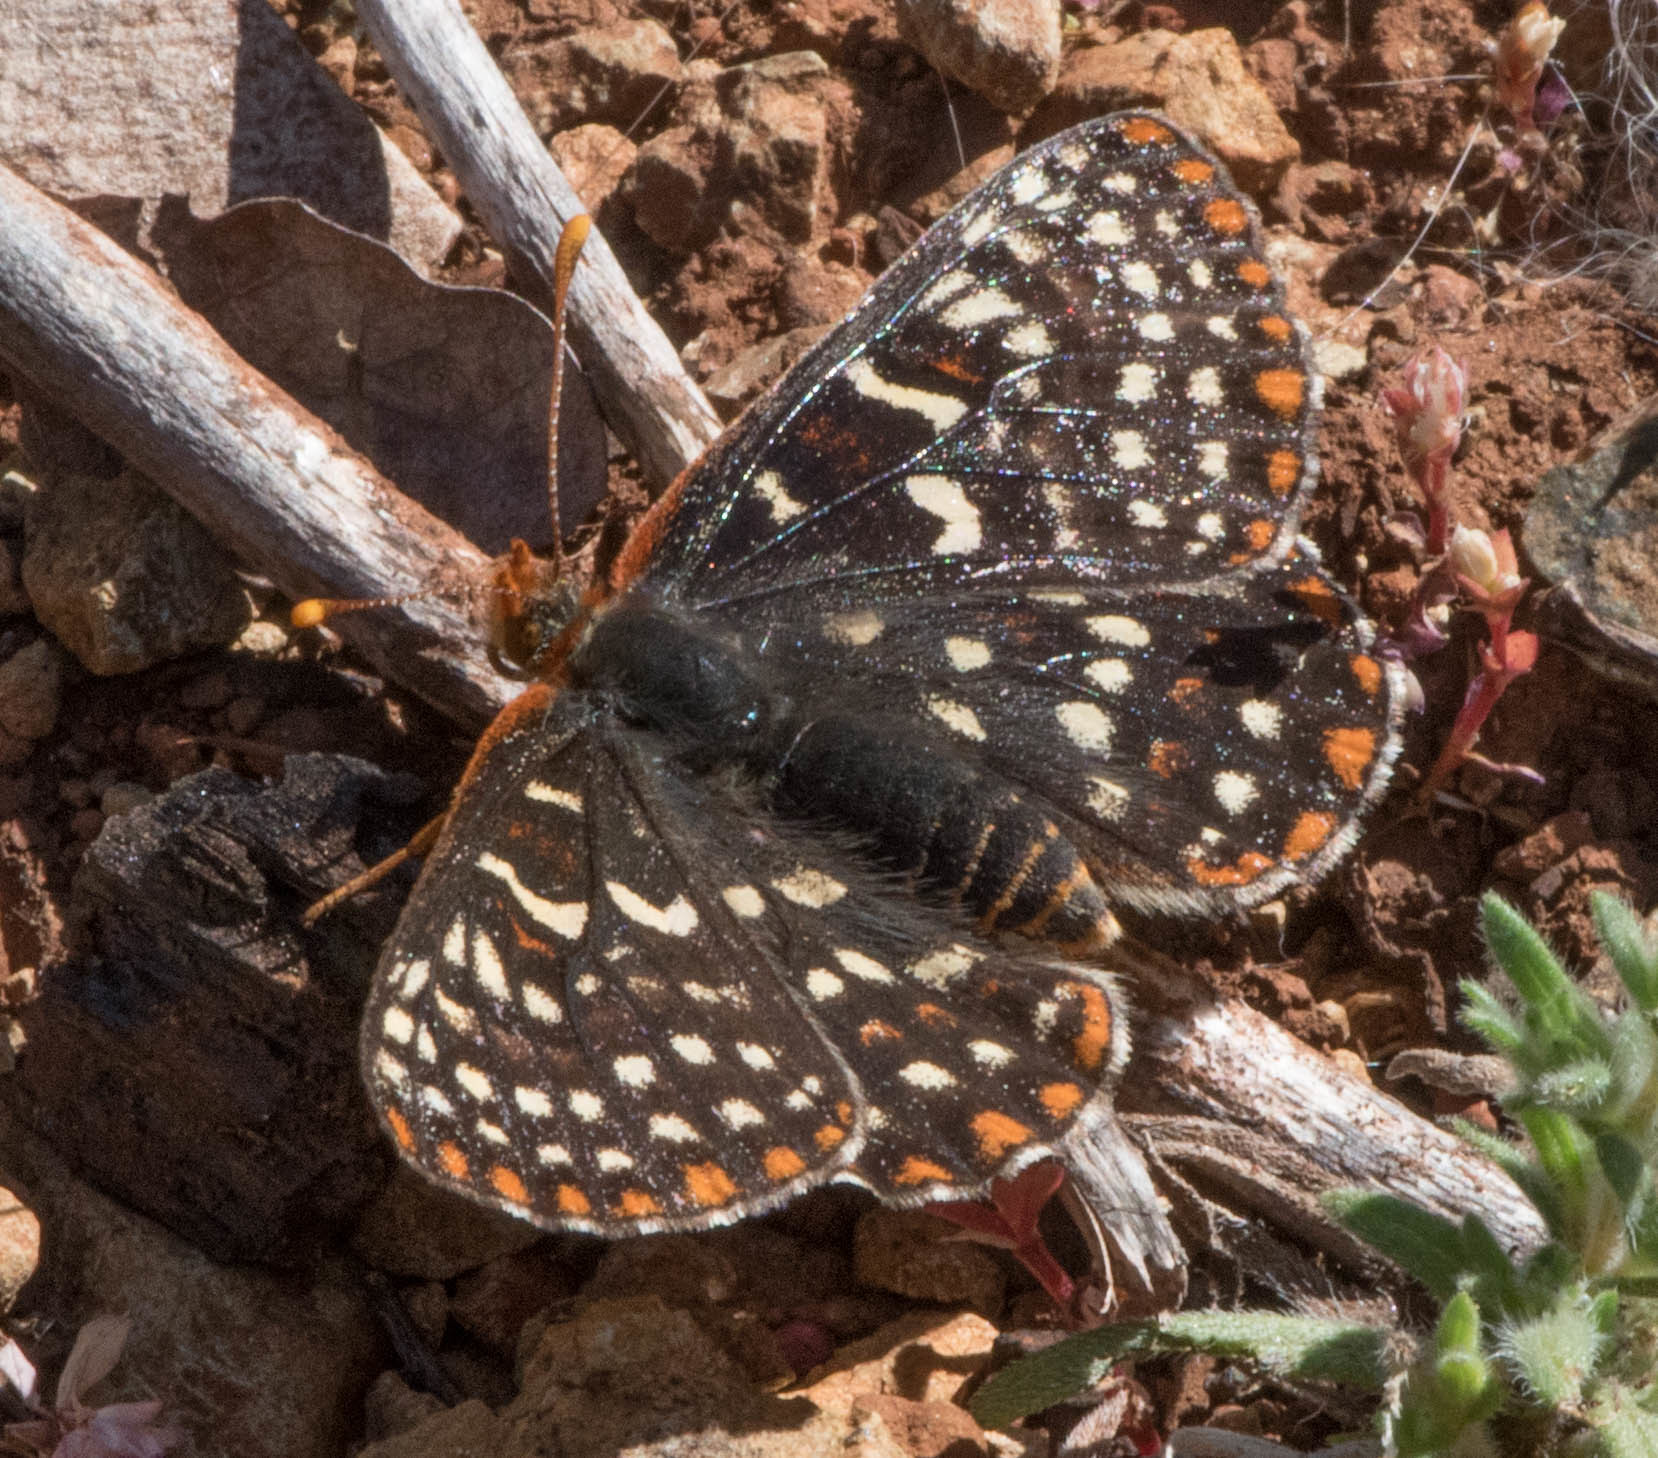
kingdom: Animalia
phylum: Arthropoda
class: Insecta
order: Lepidoptera
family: Nymphalidae
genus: Occidryas
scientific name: Occidryas editha
